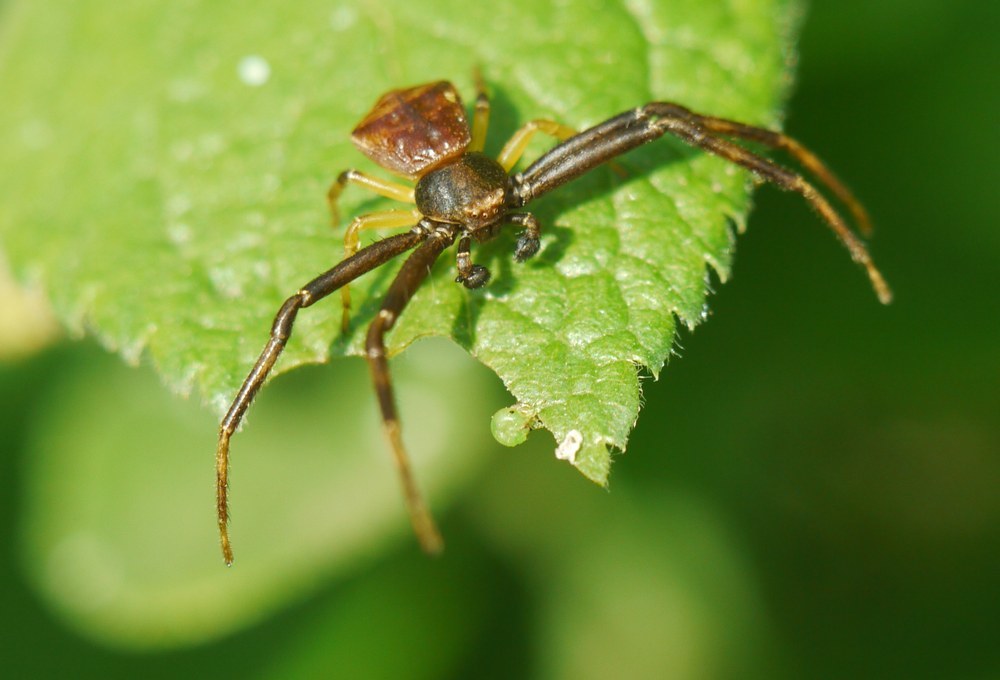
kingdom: Animalia
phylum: Arthropoda
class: Arachnida
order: Araneae
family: Thomisidae
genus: Pistius
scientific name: Pistius truncatus
